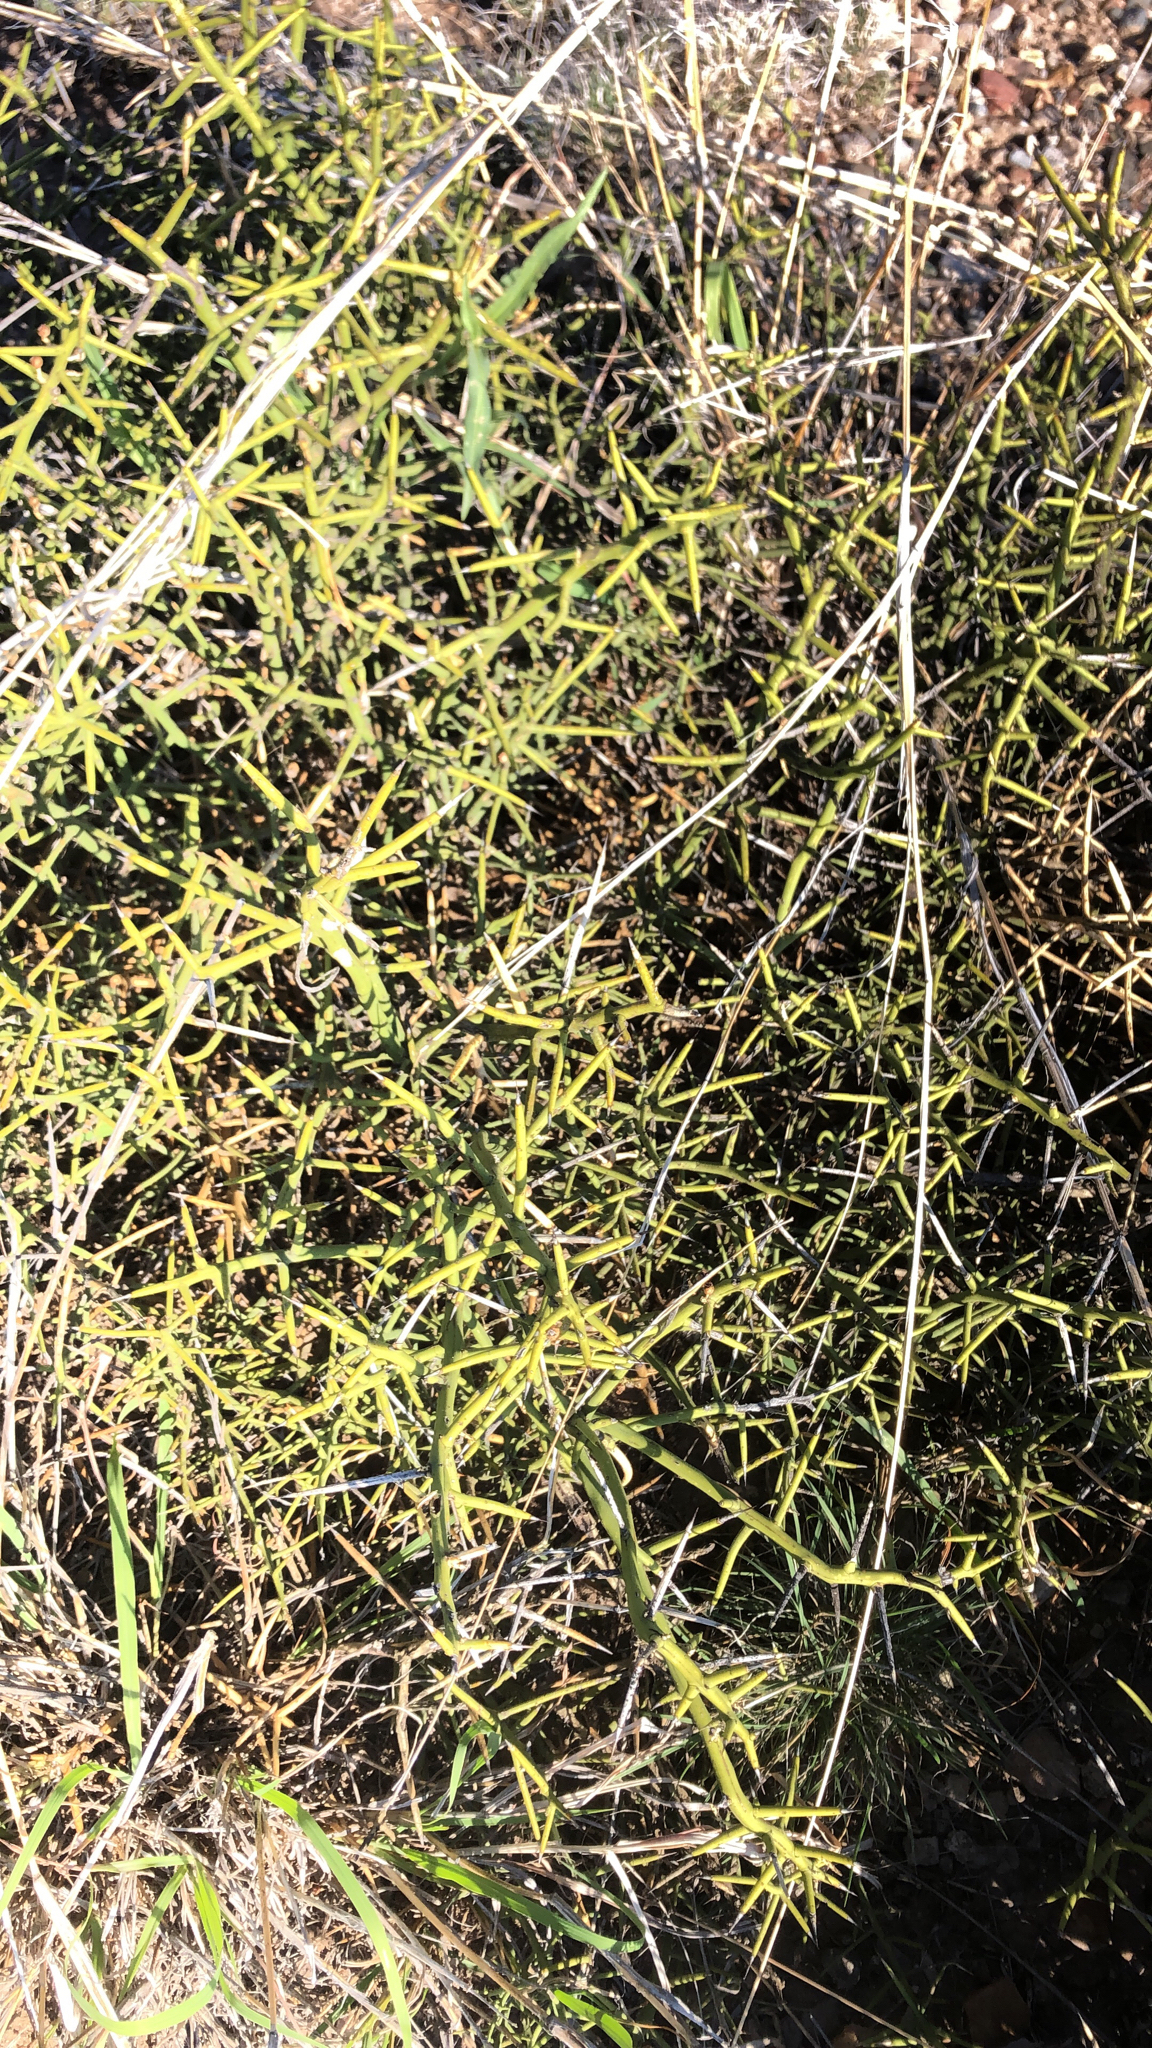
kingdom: Plantae
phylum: Tracheophyta
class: Magnoliopsida
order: Brassicales
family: Koeberliniaceae
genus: Koeberlinia
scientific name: Koeberlinia spinosa
